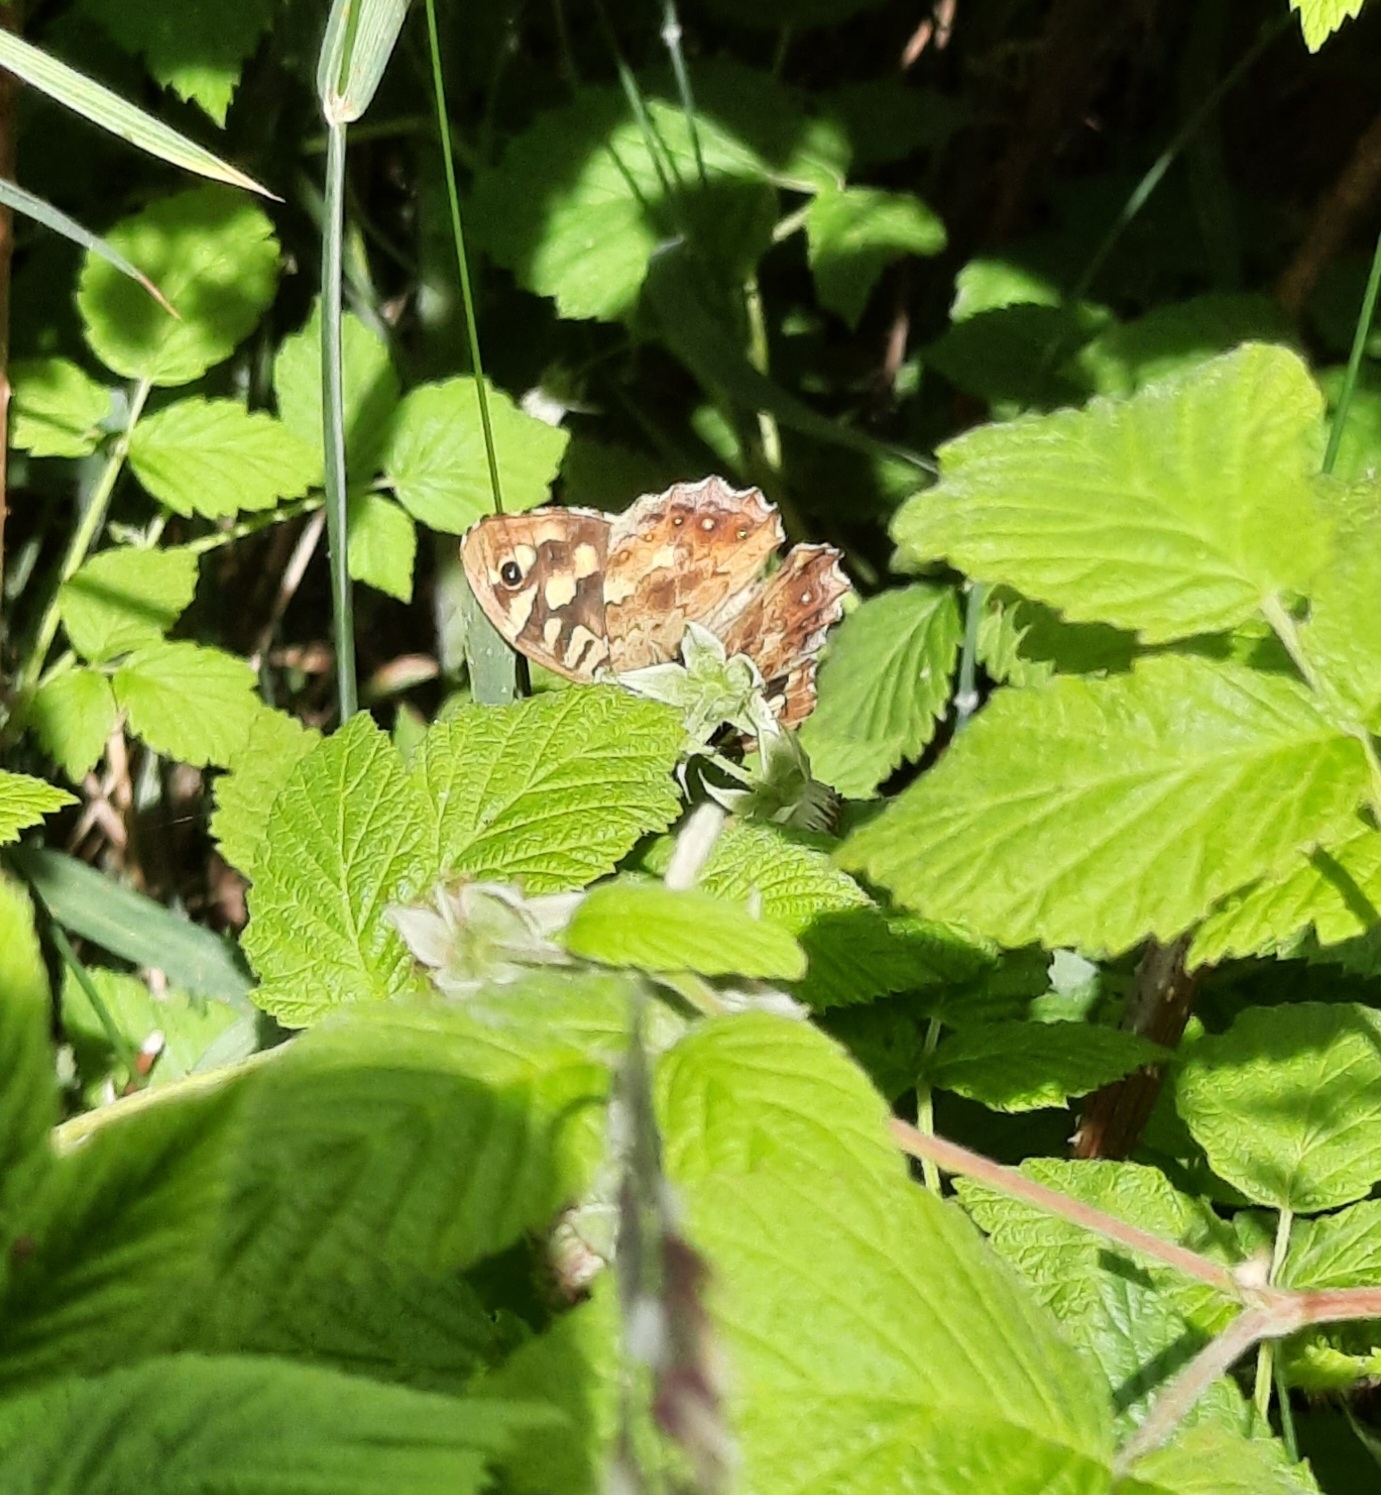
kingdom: Animalia
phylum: Arthropoda
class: Insecta
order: Lepidoptera
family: Nymphalidae
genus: Pararge
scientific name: Pararge aegeria
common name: Speckled wood
